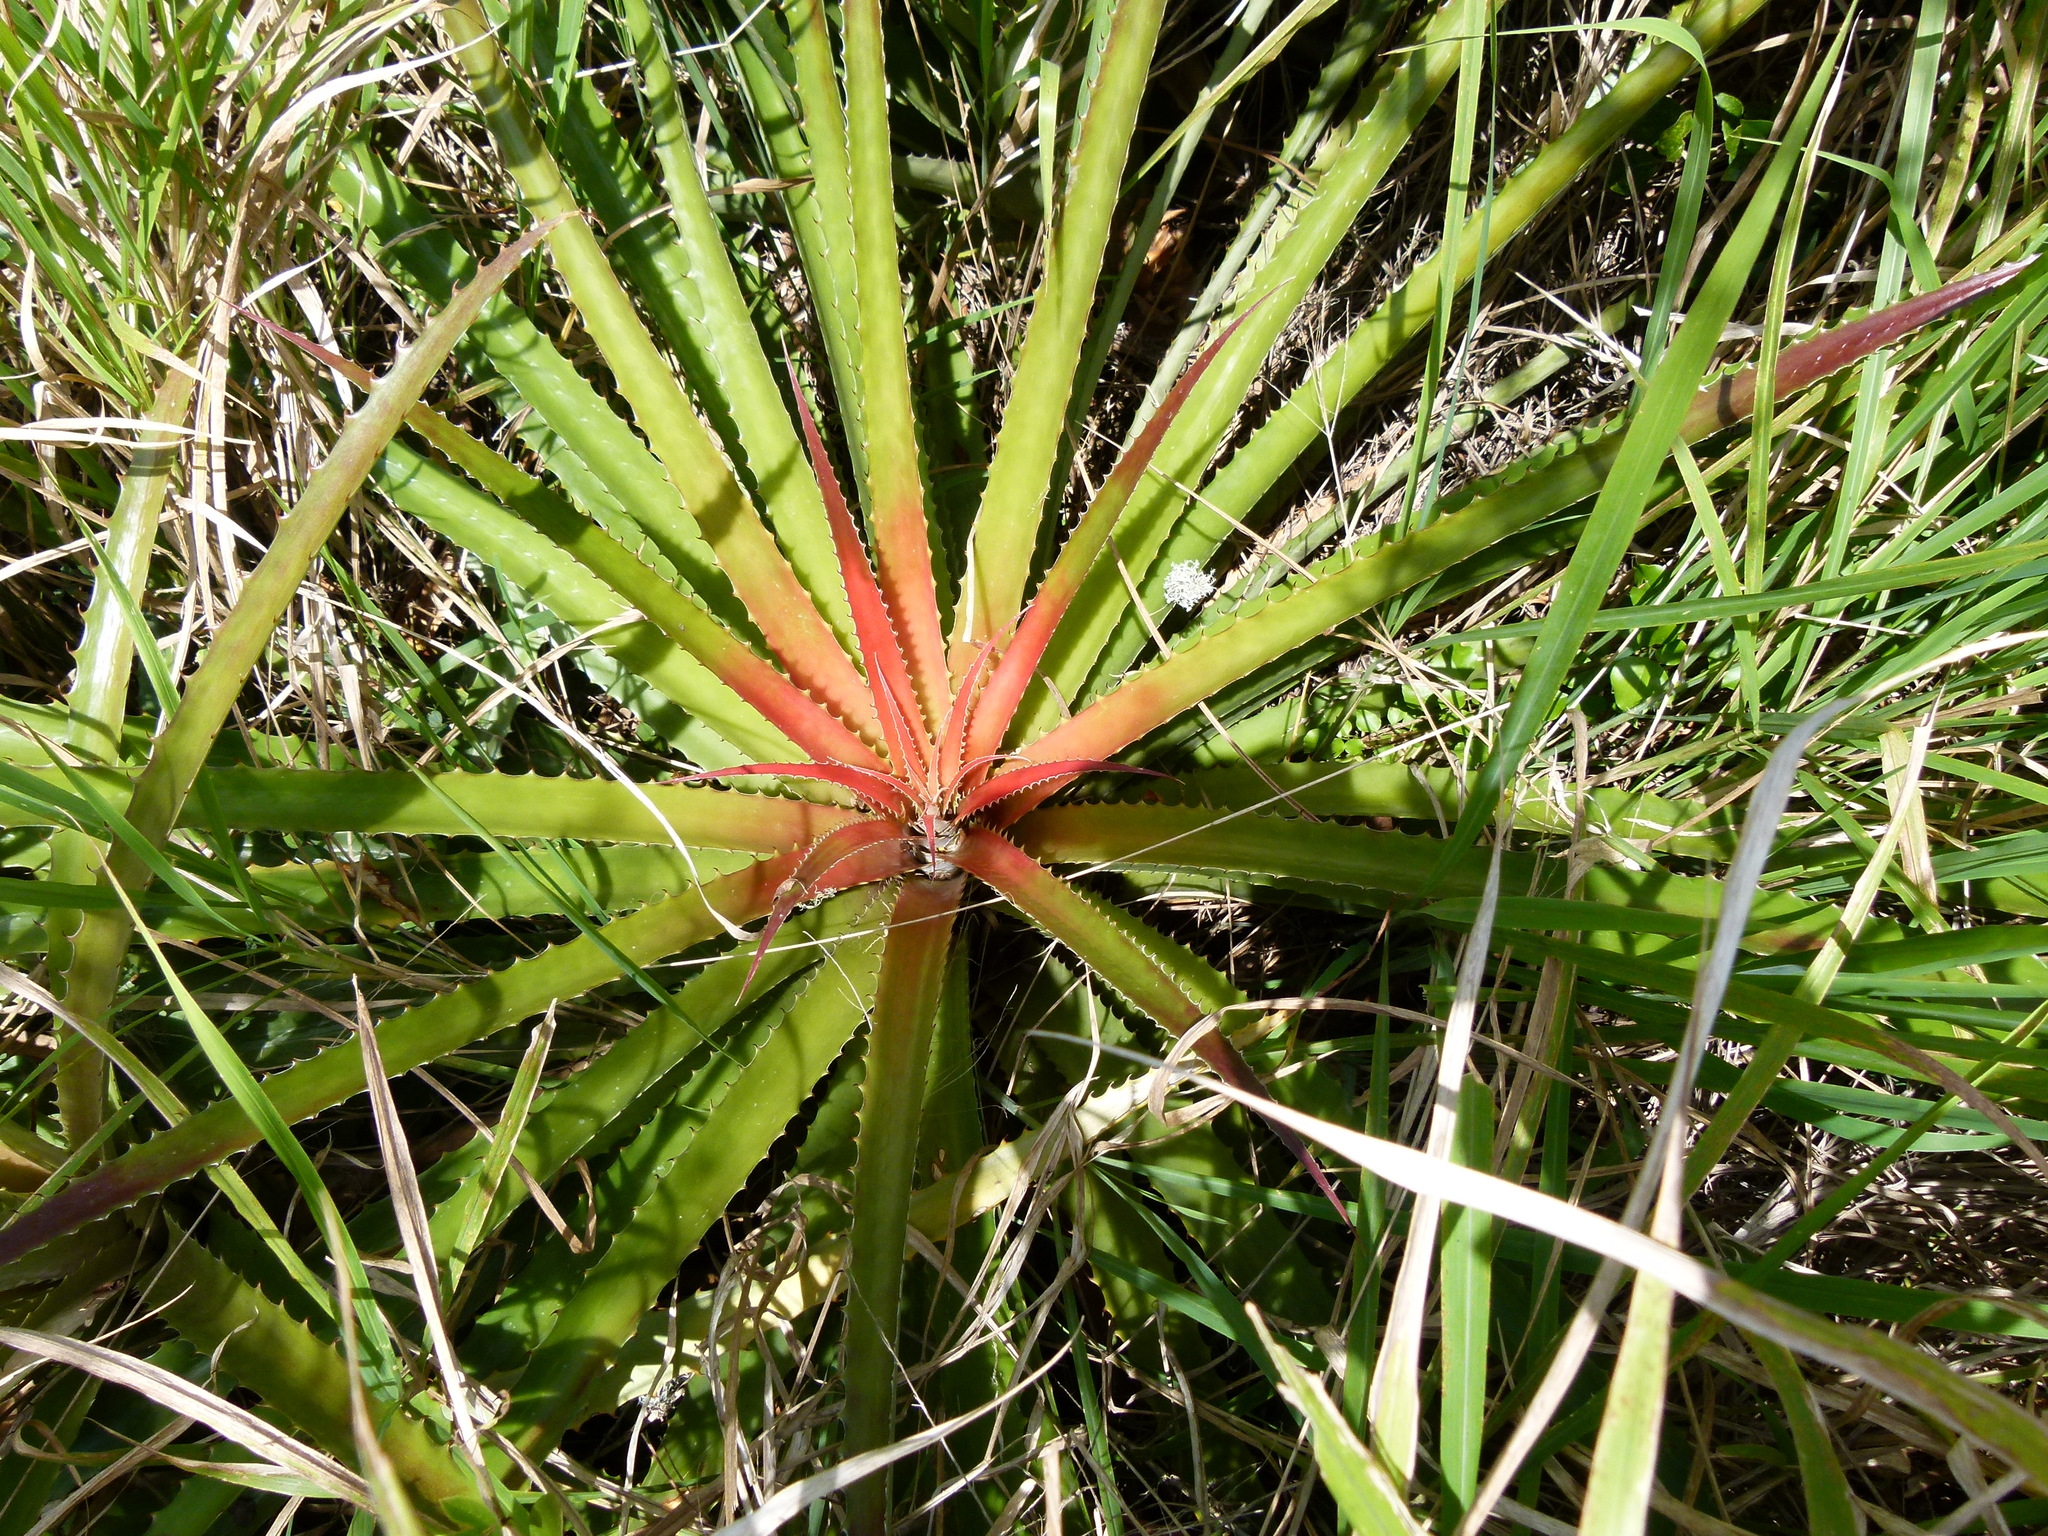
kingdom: Plantae
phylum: Tracheophyta
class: Liliopsida
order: Poales
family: Bromeliaceae
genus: Bromelia
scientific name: Bromelia pinguin
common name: Pinguin
